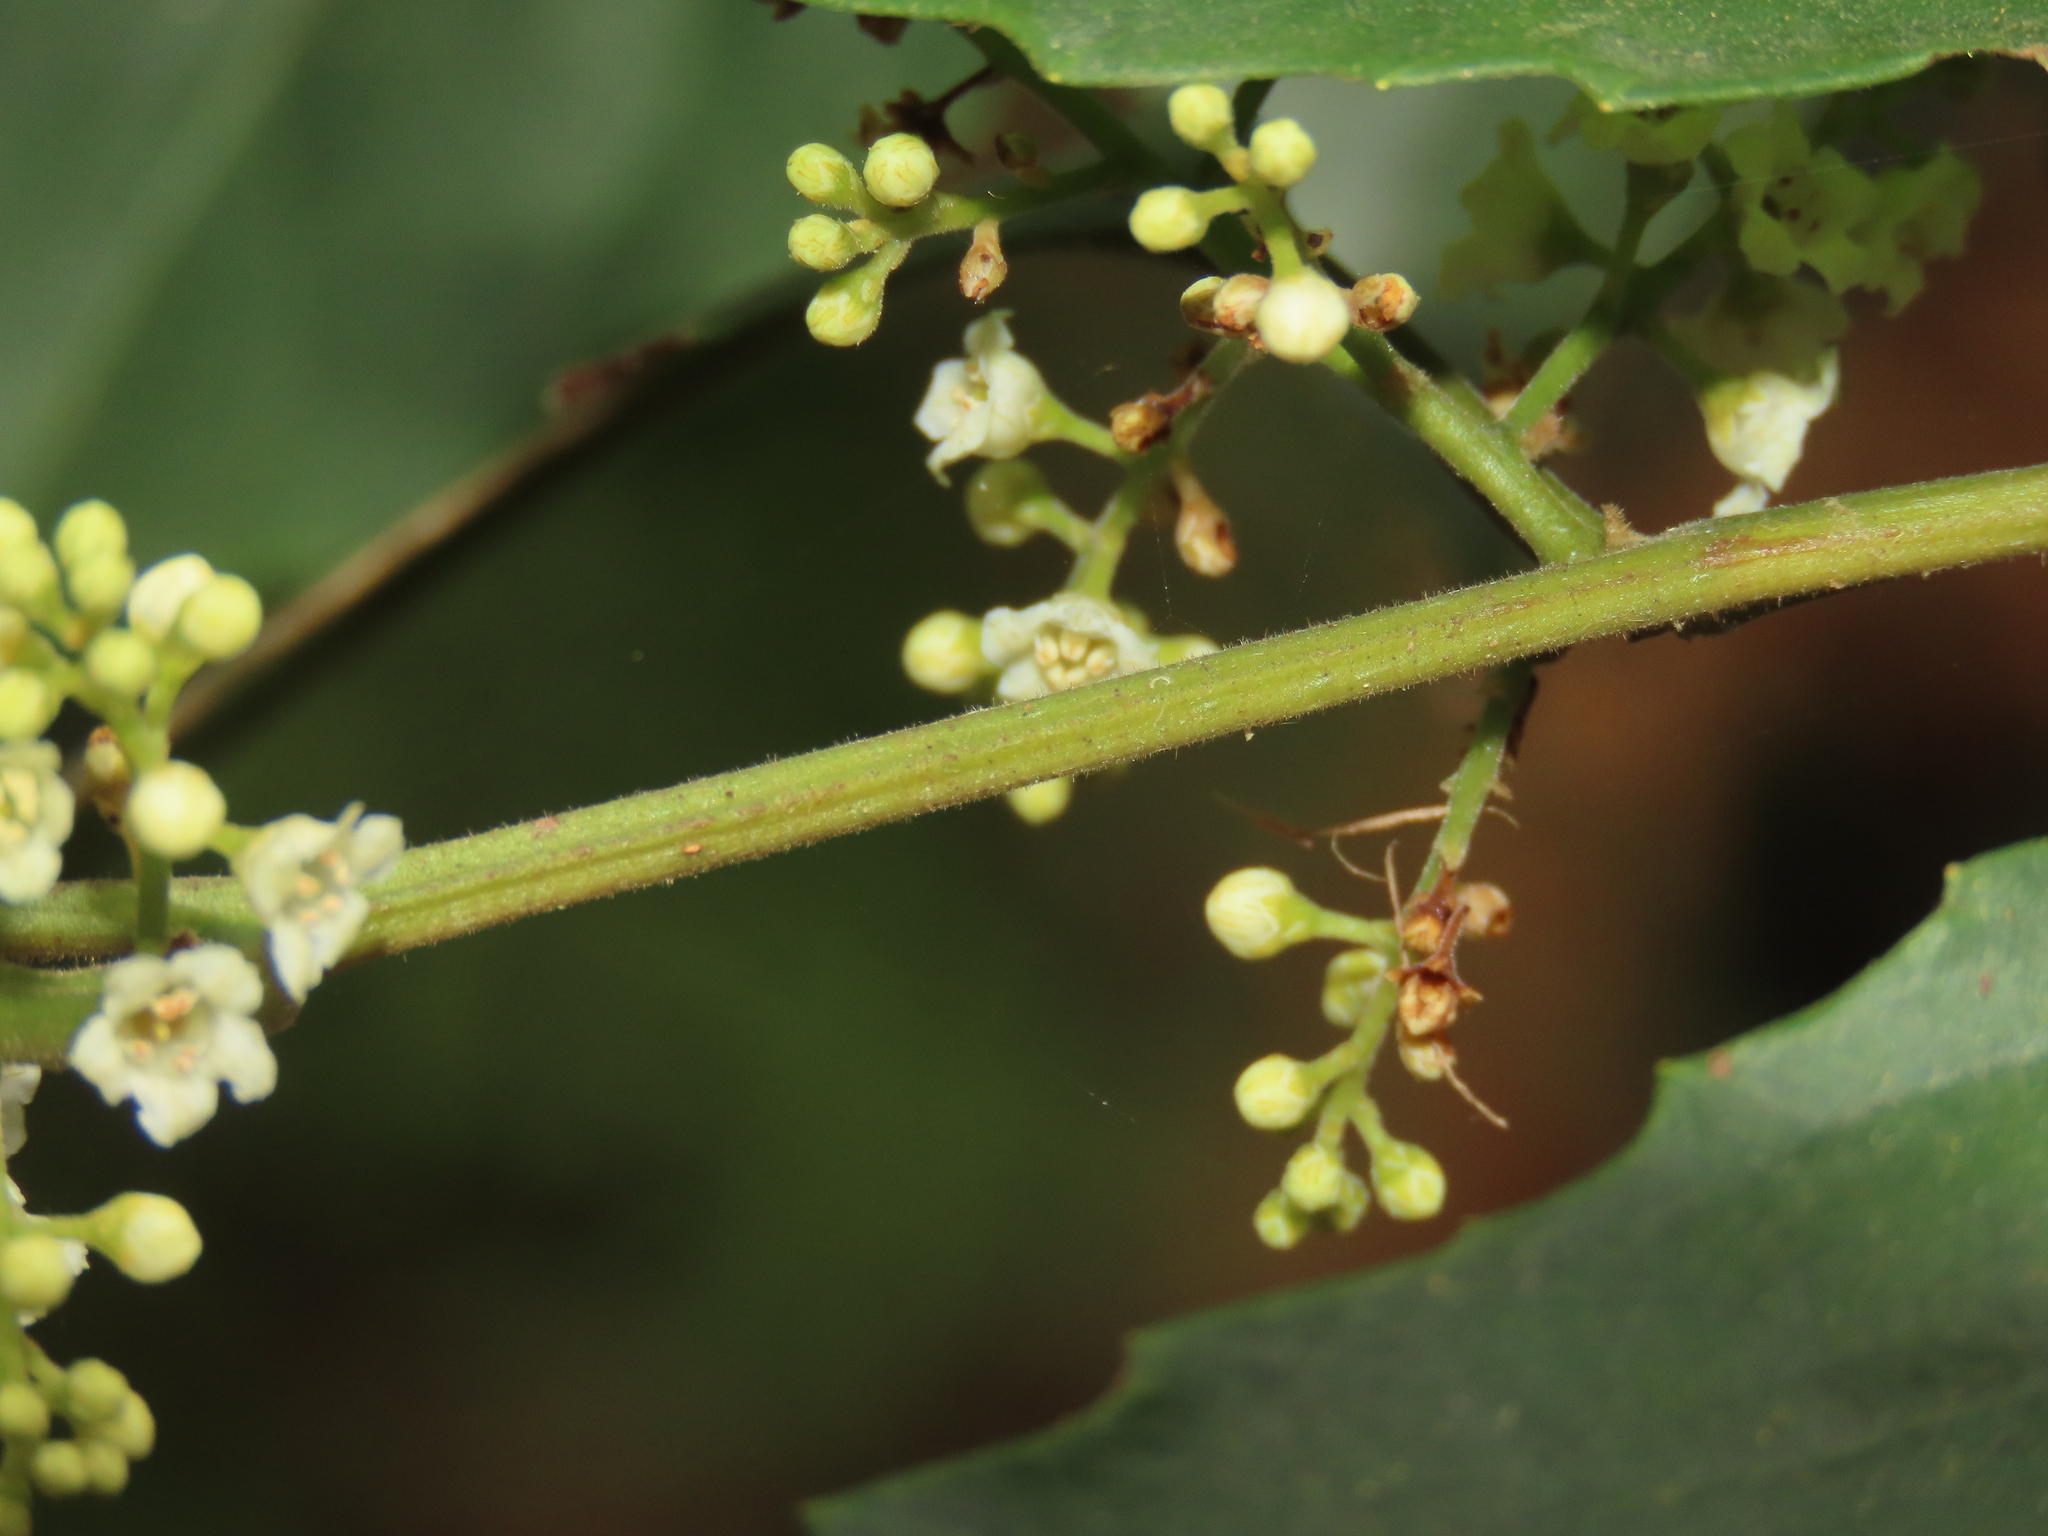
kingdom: Plantae
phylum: Tracheophyta
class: Magnoliopsida
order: Ericales
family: Primulaceae
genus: Maesa
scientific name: Maesa perlaria
